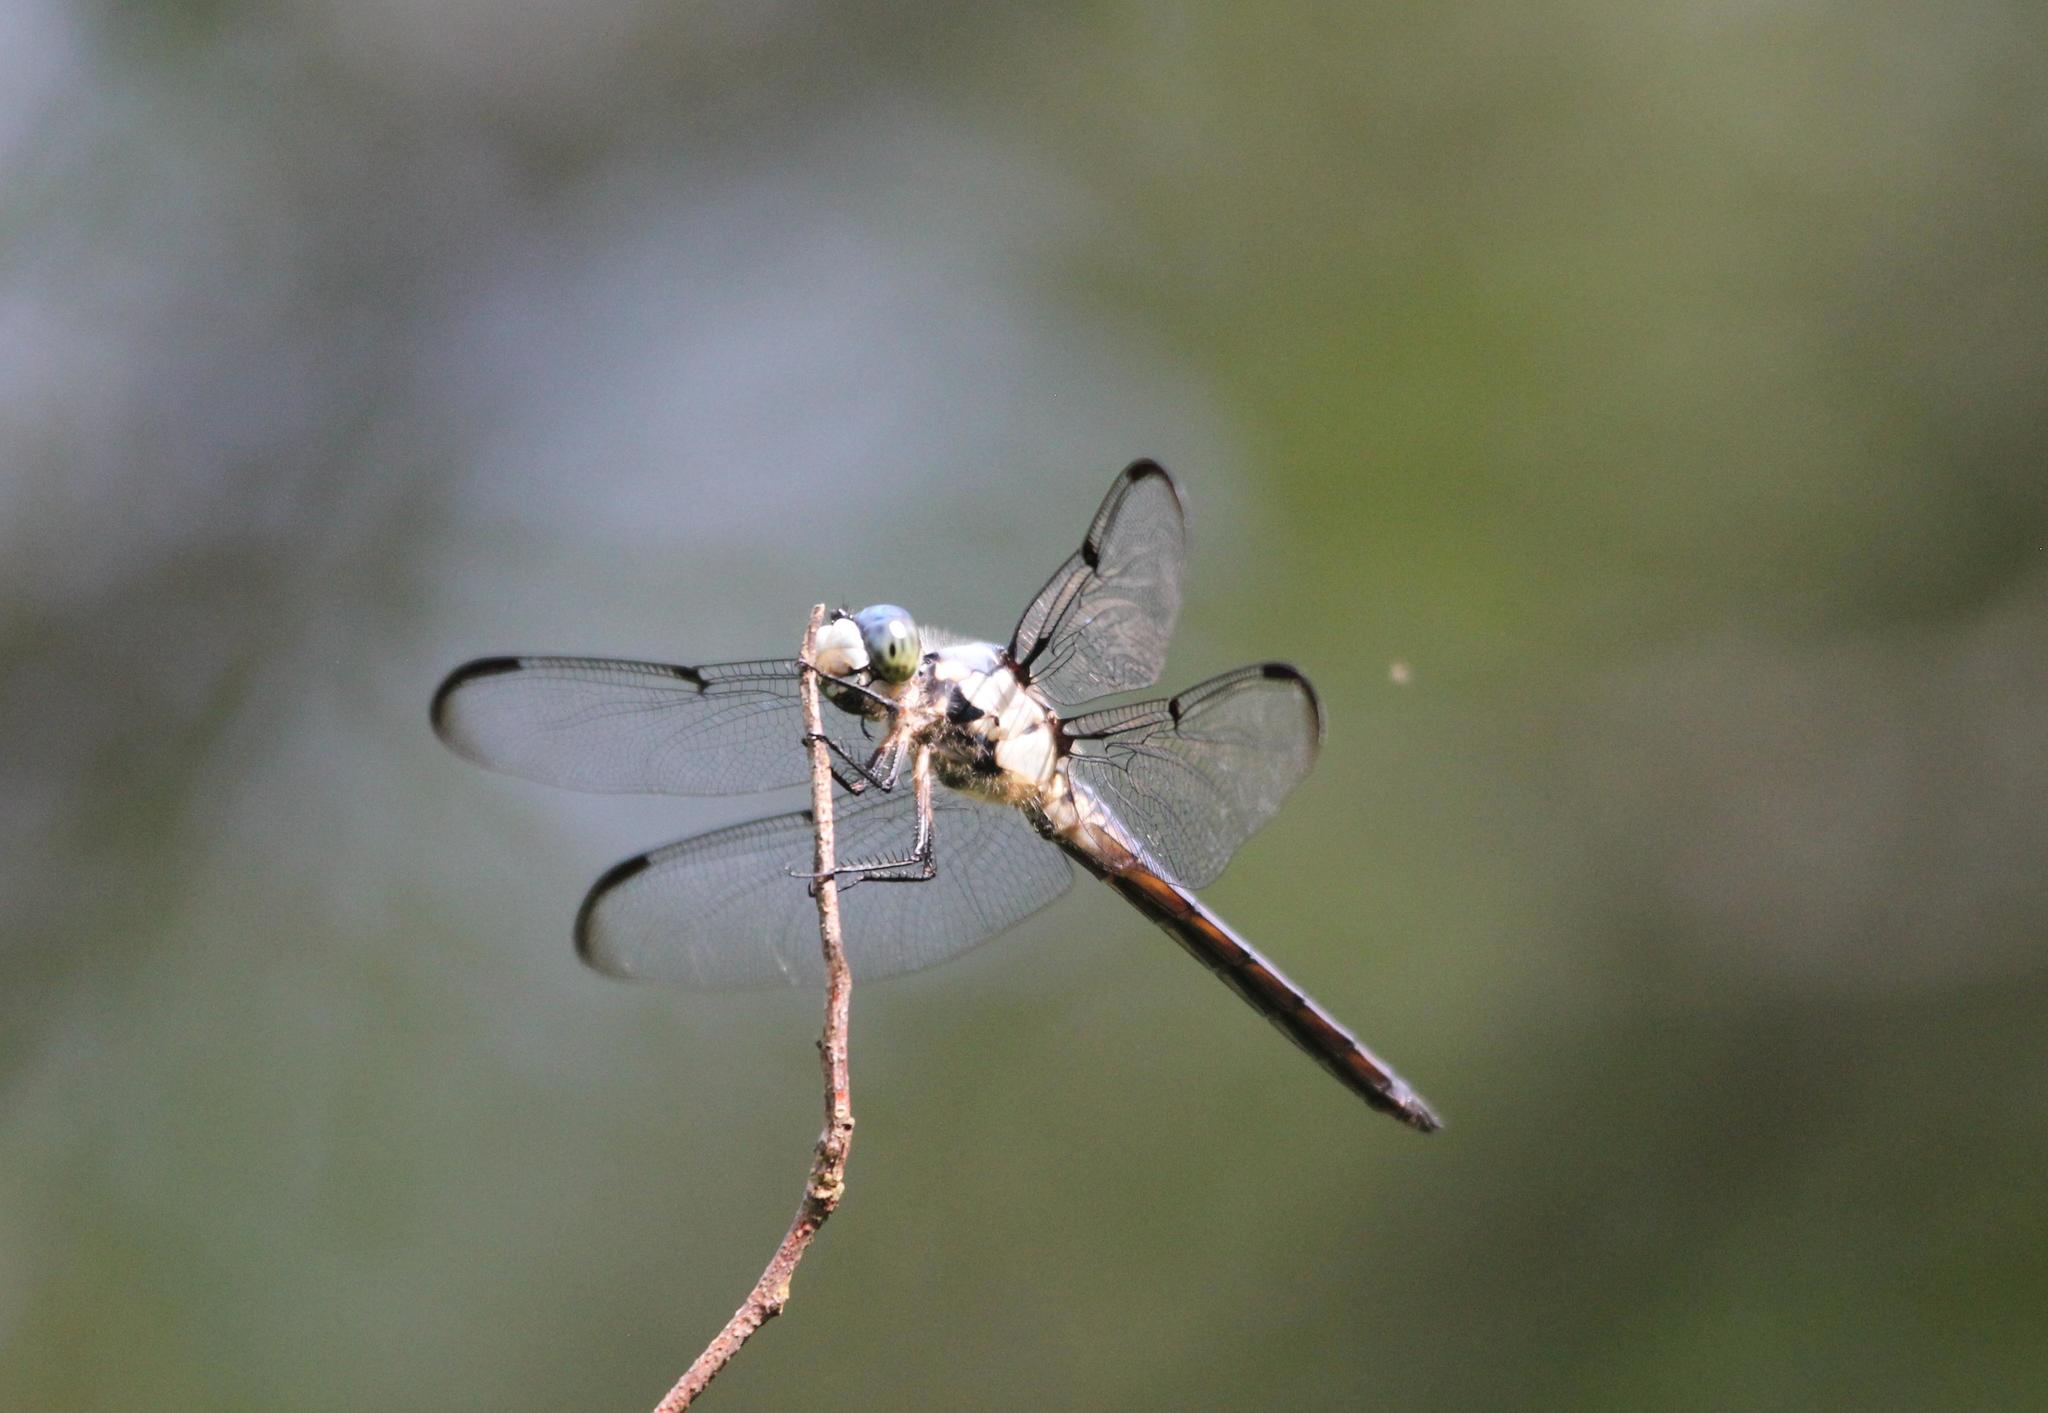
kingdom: Animalia
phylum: Arthropoda
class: Insecta
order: Odonata
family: Libellulidae
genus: Libellula
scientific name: Libellula vibrans
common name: Great blue skimmer
